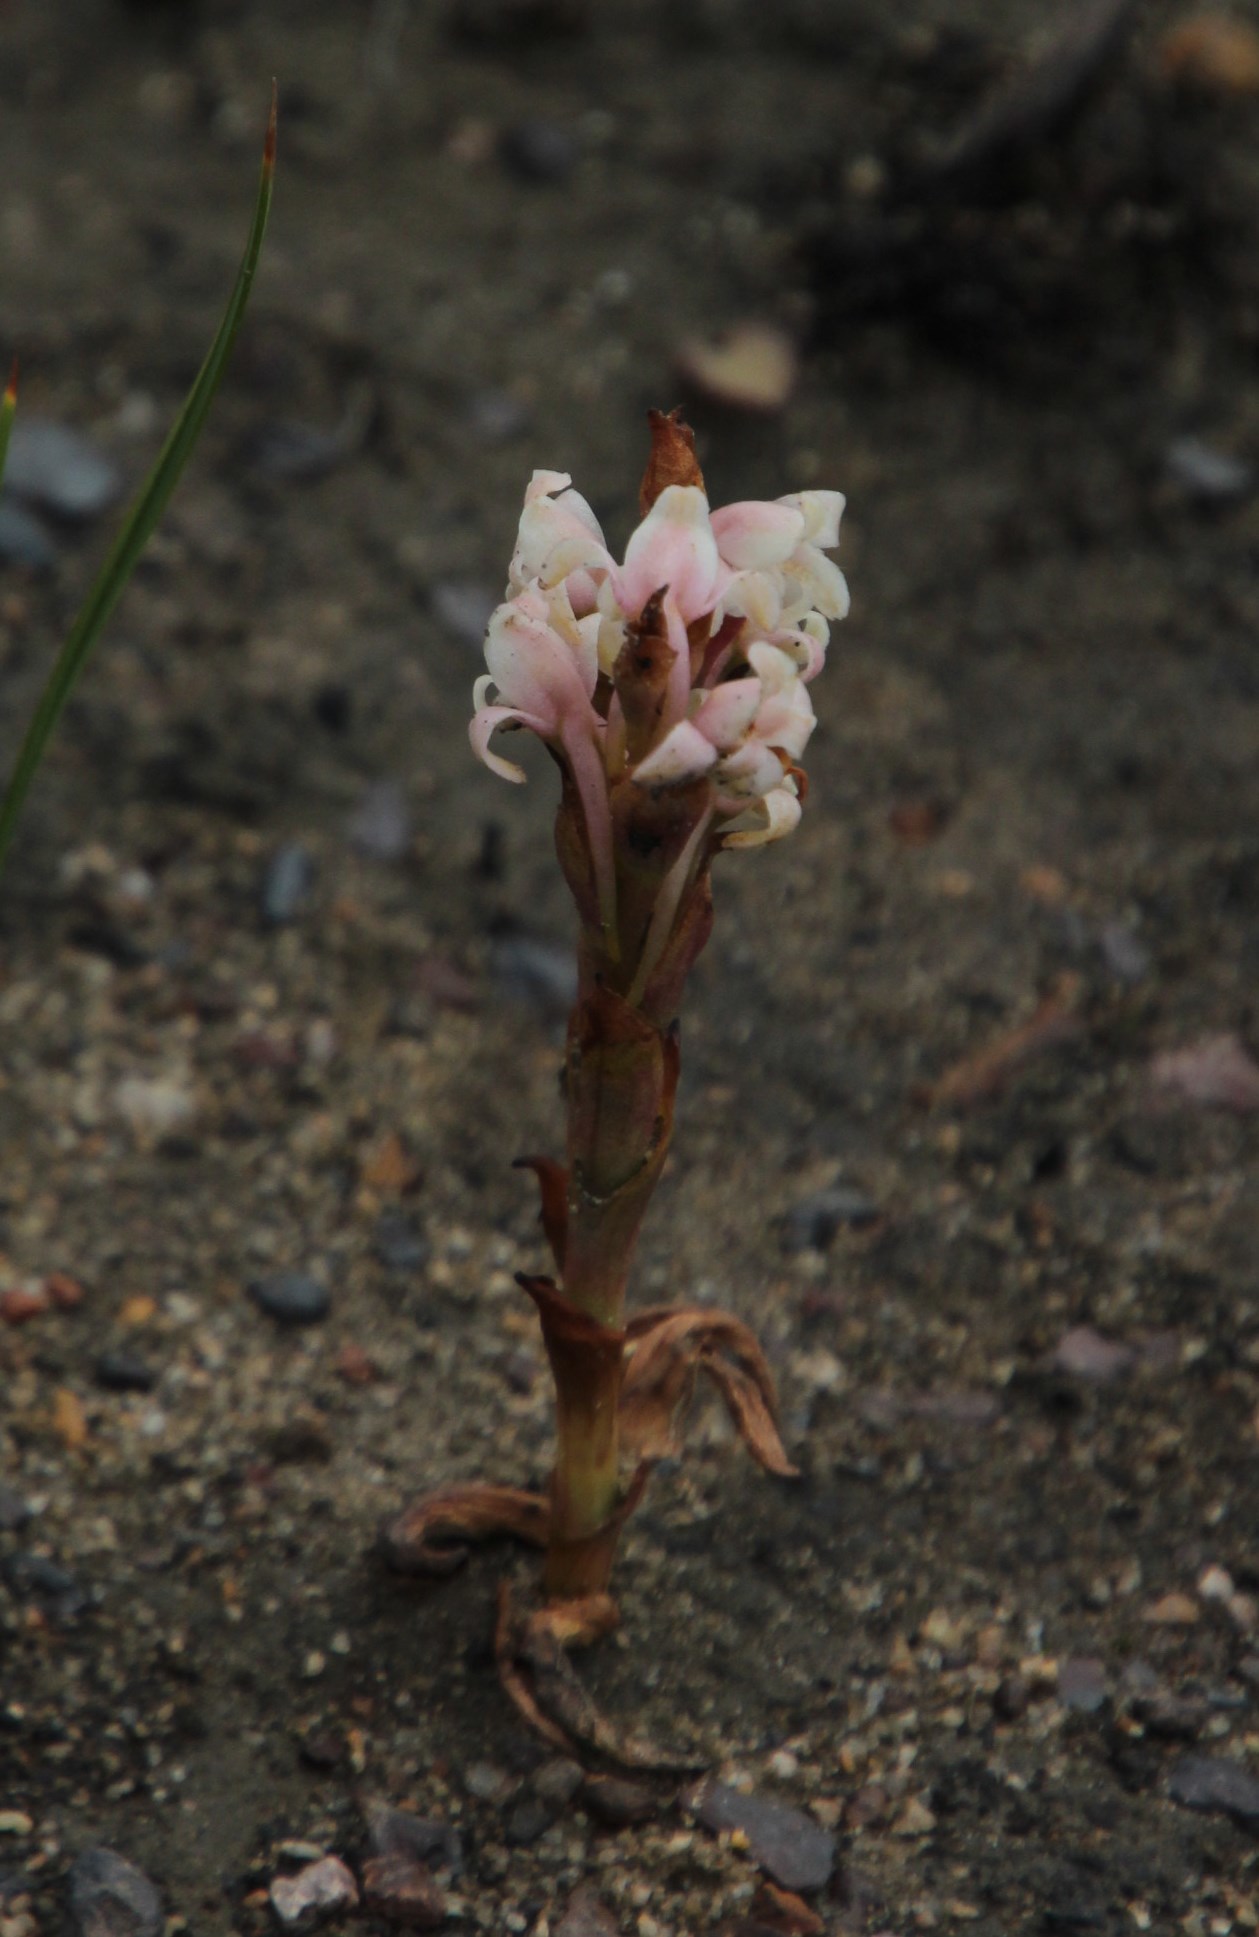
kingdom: Plantae
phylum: Tracheophyta
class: Liliopsida
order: Asparagales
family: Orchidaceae
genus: Satyrium
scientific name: Satyrium stenopetalum
